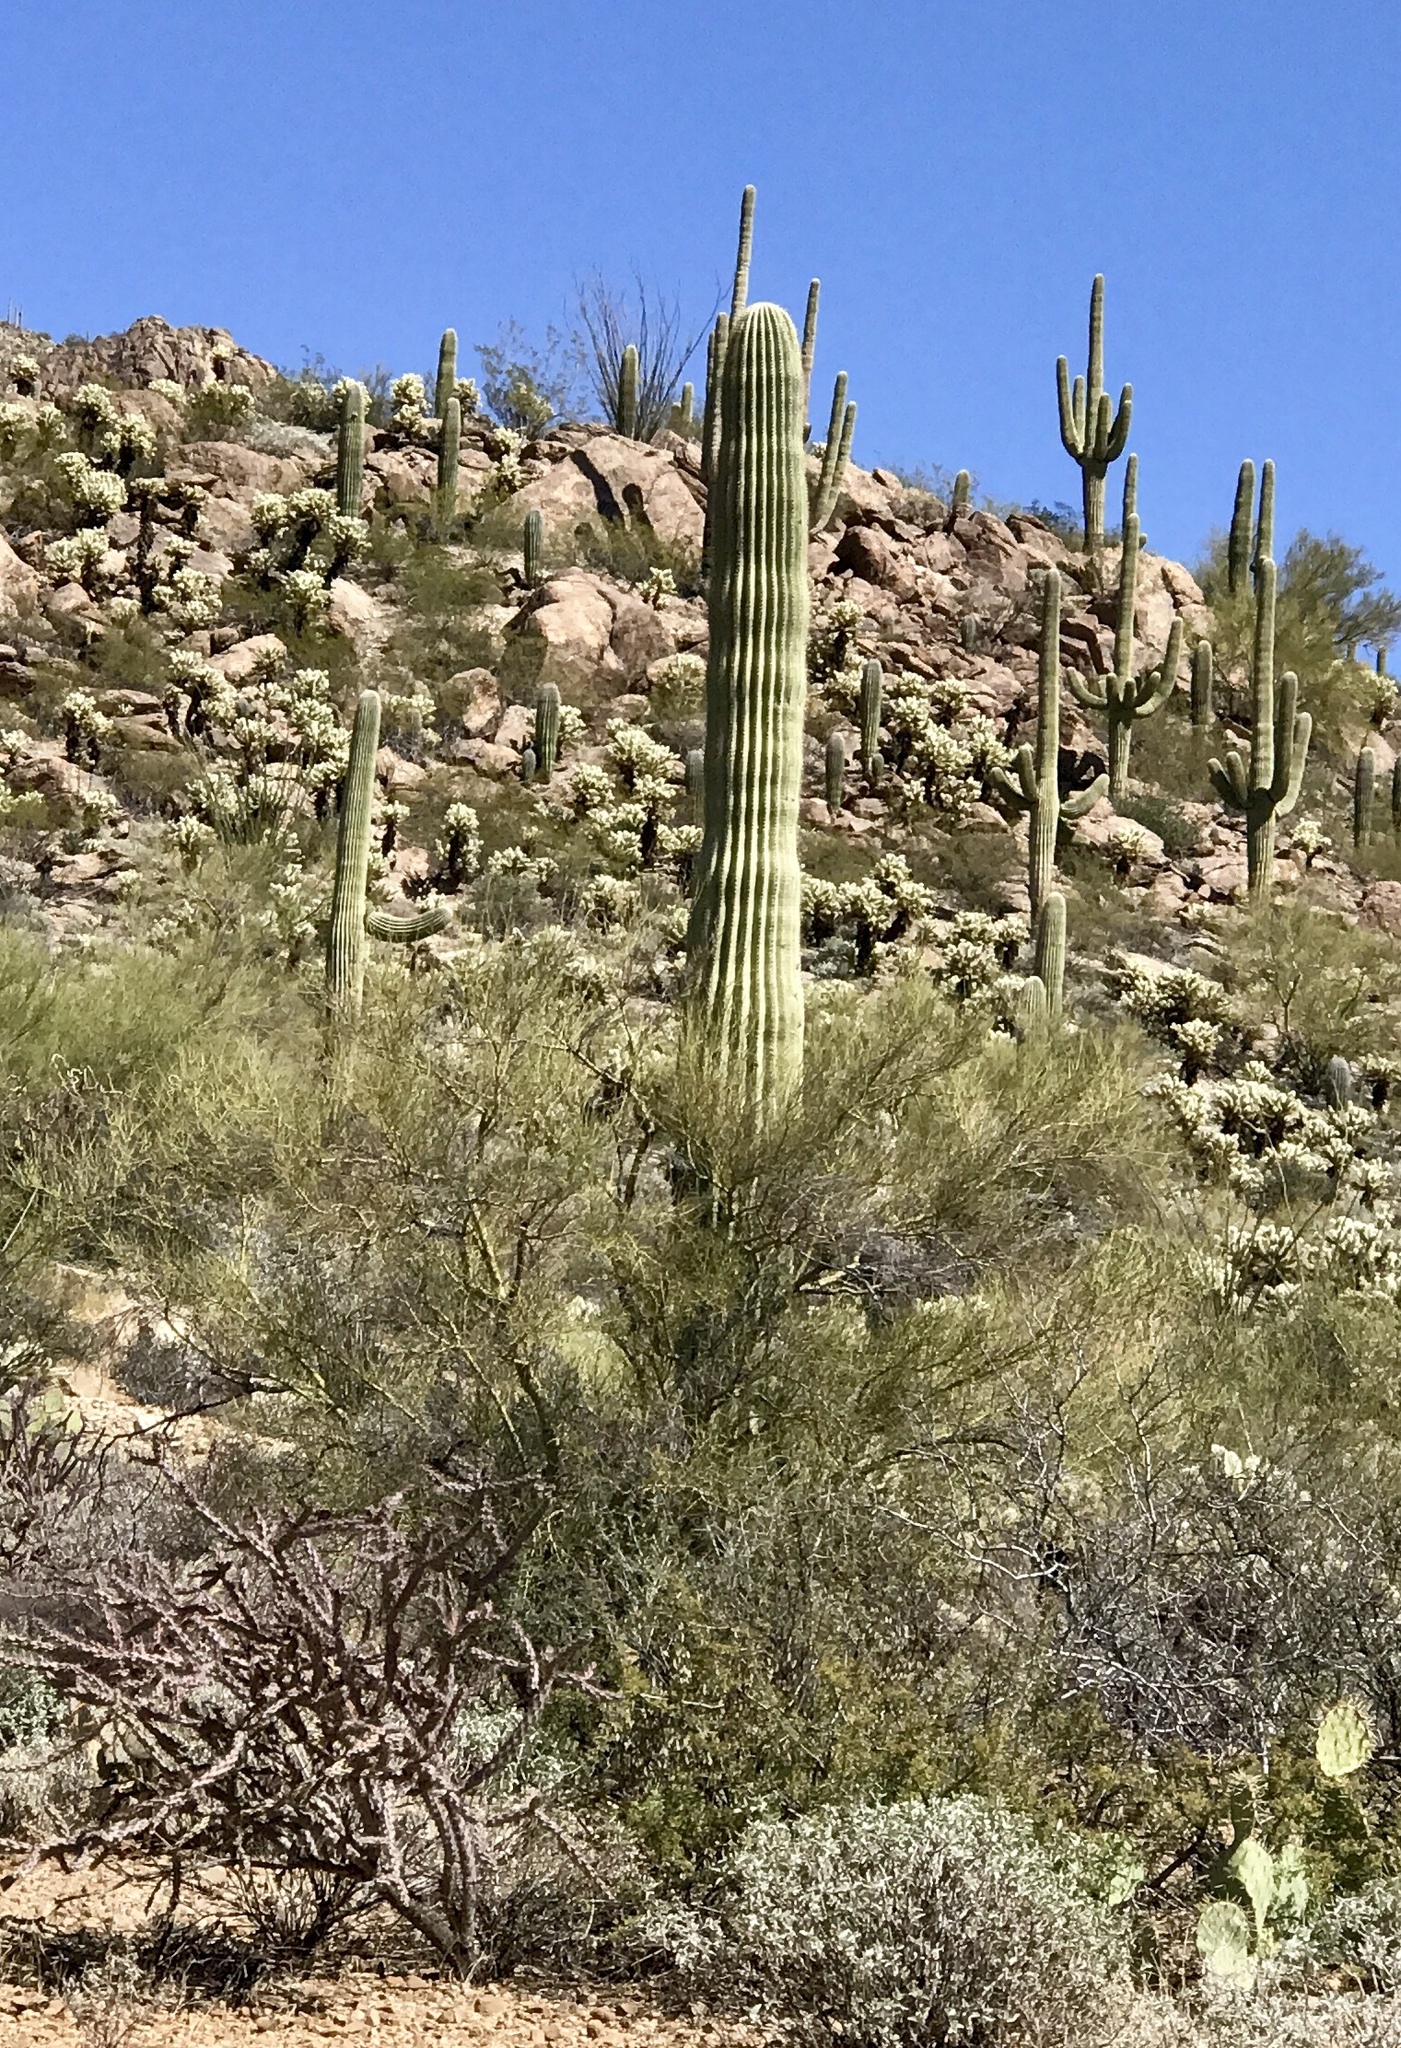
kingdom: Plantae
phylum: Tracheophyta
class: Magnoliopsida
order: Caryophyllales
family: Cactaceae
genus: Carnegiea
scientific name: Carnegiea gigantea
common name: Saguaro
